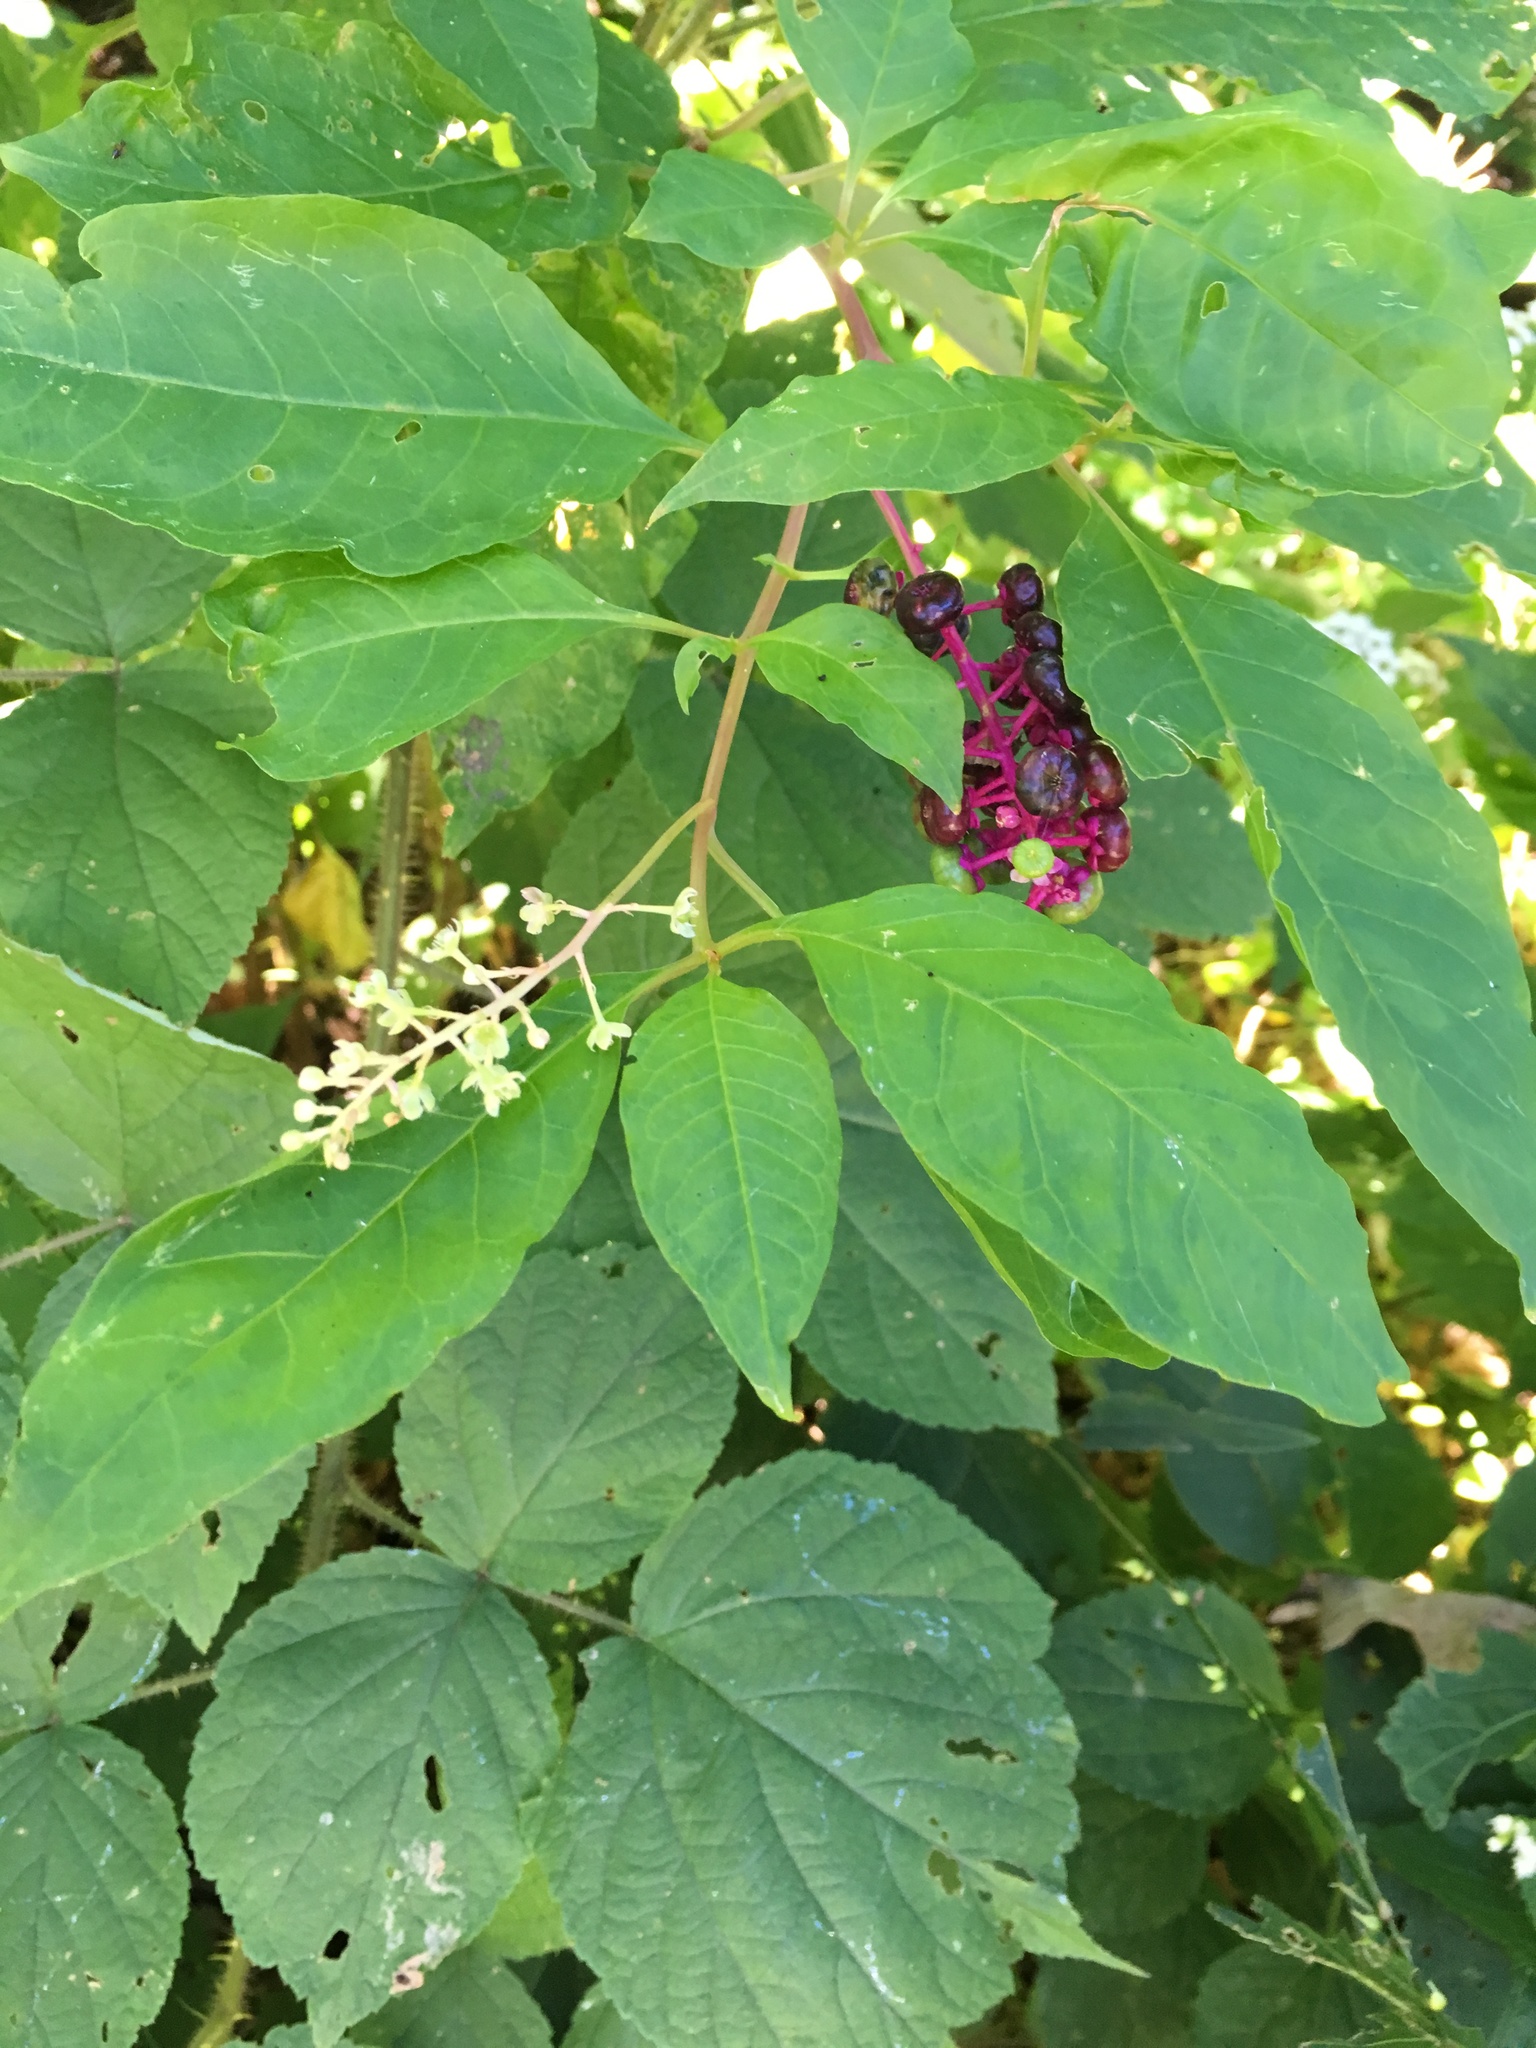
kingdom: Plantae
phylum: Tracheophyta
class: Magnoliopsida
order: Caryophyllales
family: Phytolaccaceae
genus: Phytolacca
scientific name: Phytolacca americana
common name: American pokeweed
